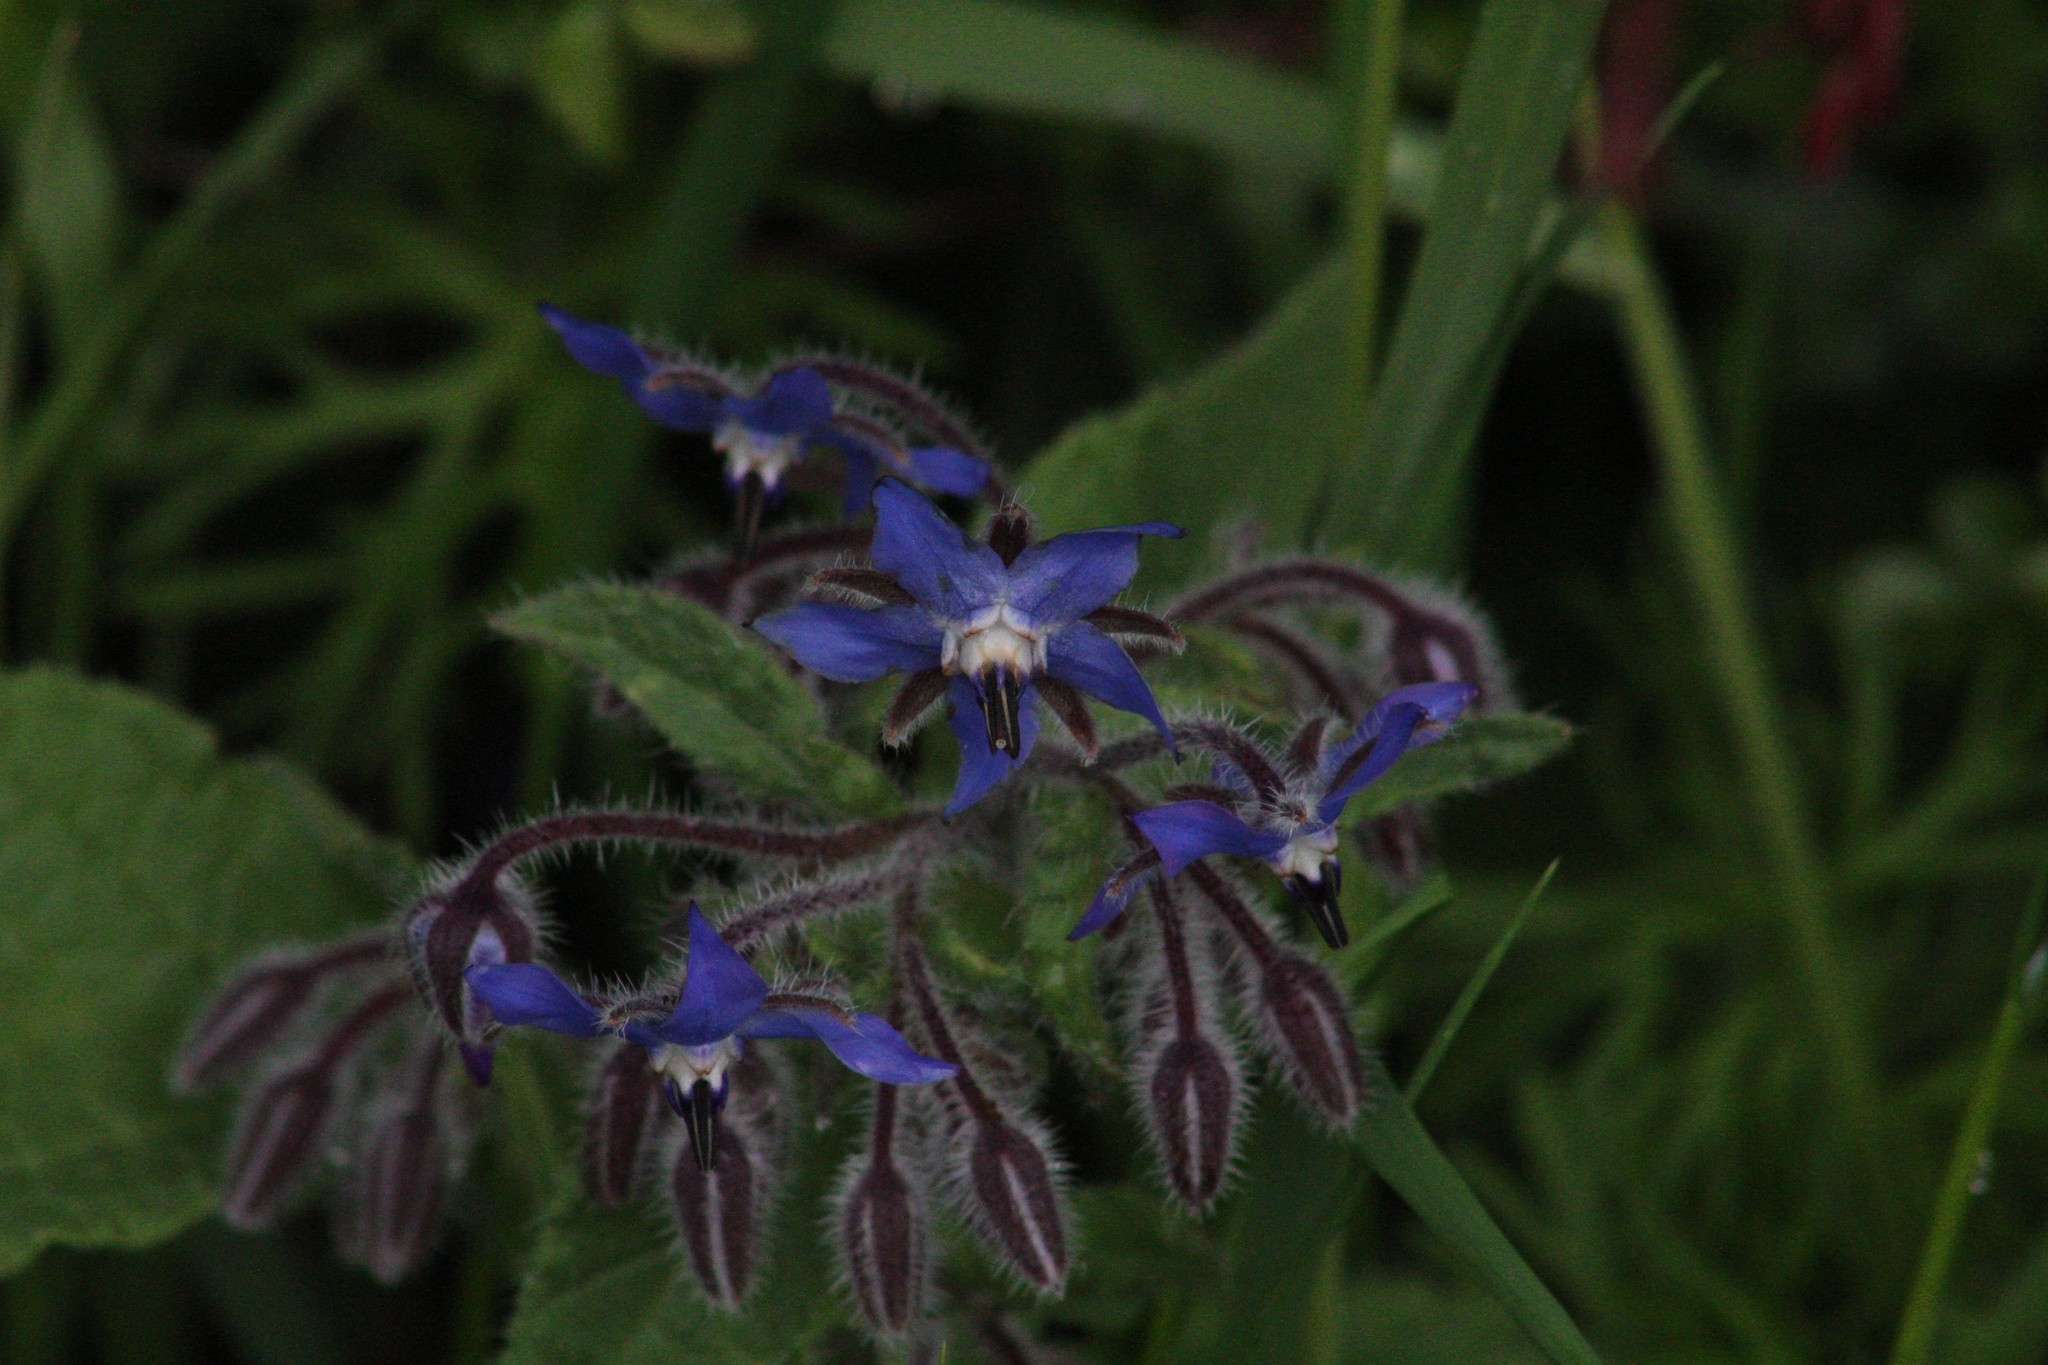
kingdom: Plantae
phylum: Tracheophyta
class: Magnoliopsida
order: Boraginales
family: Boraginaceae
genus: Borago
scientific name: Borago officinalis
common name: Borage
